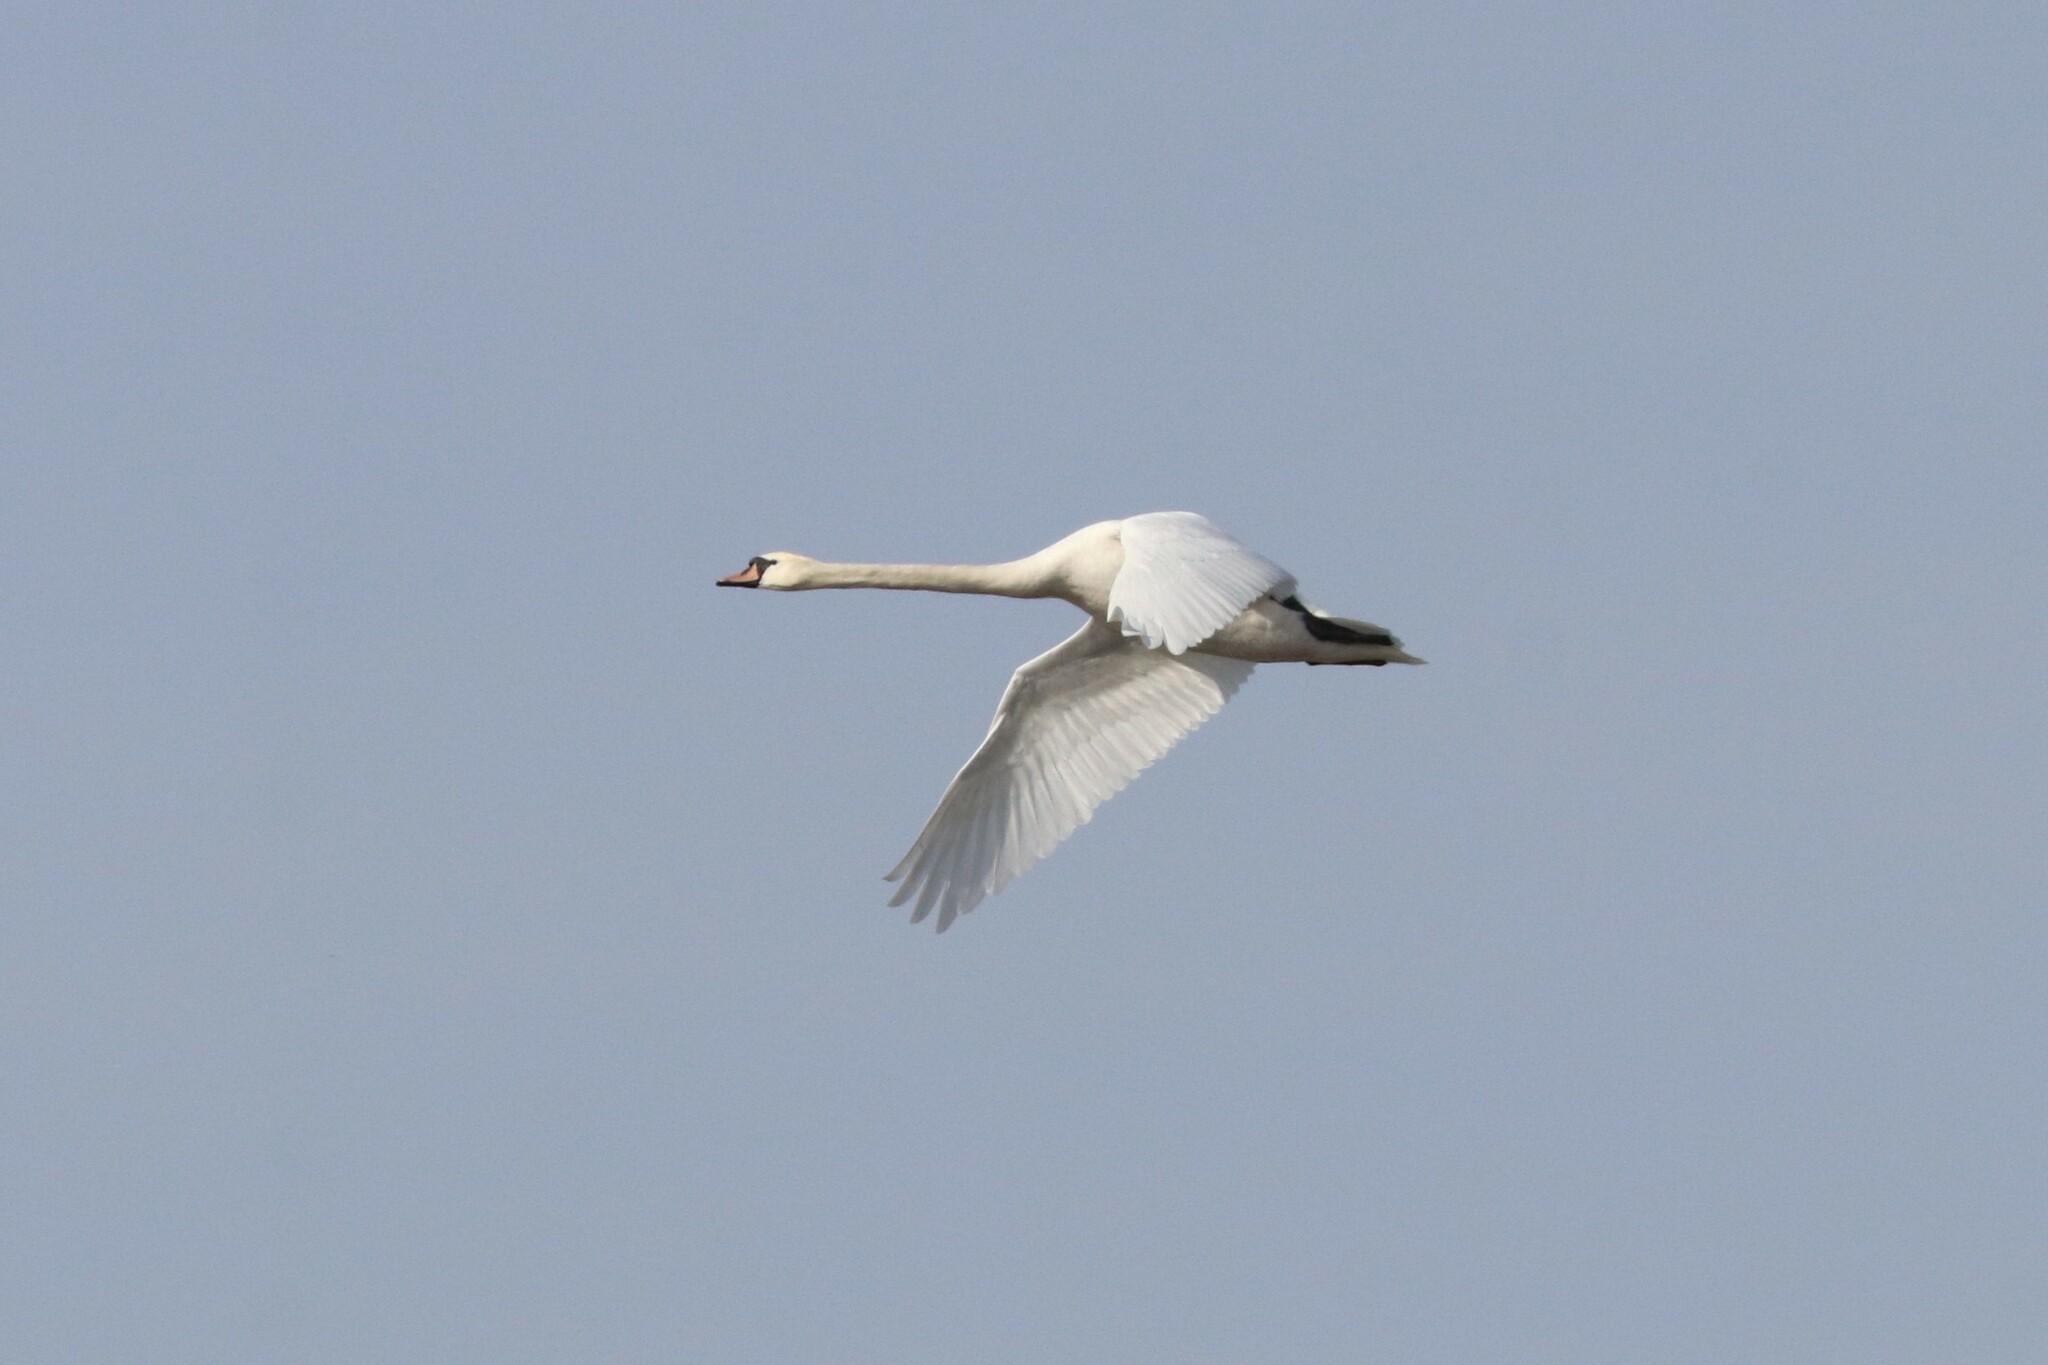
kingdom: Animalia
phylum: Chordata
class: Aves
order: Anseriformes
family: Anatidae
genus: Cygnus
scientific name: Cygnus olor
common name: Mute swan
